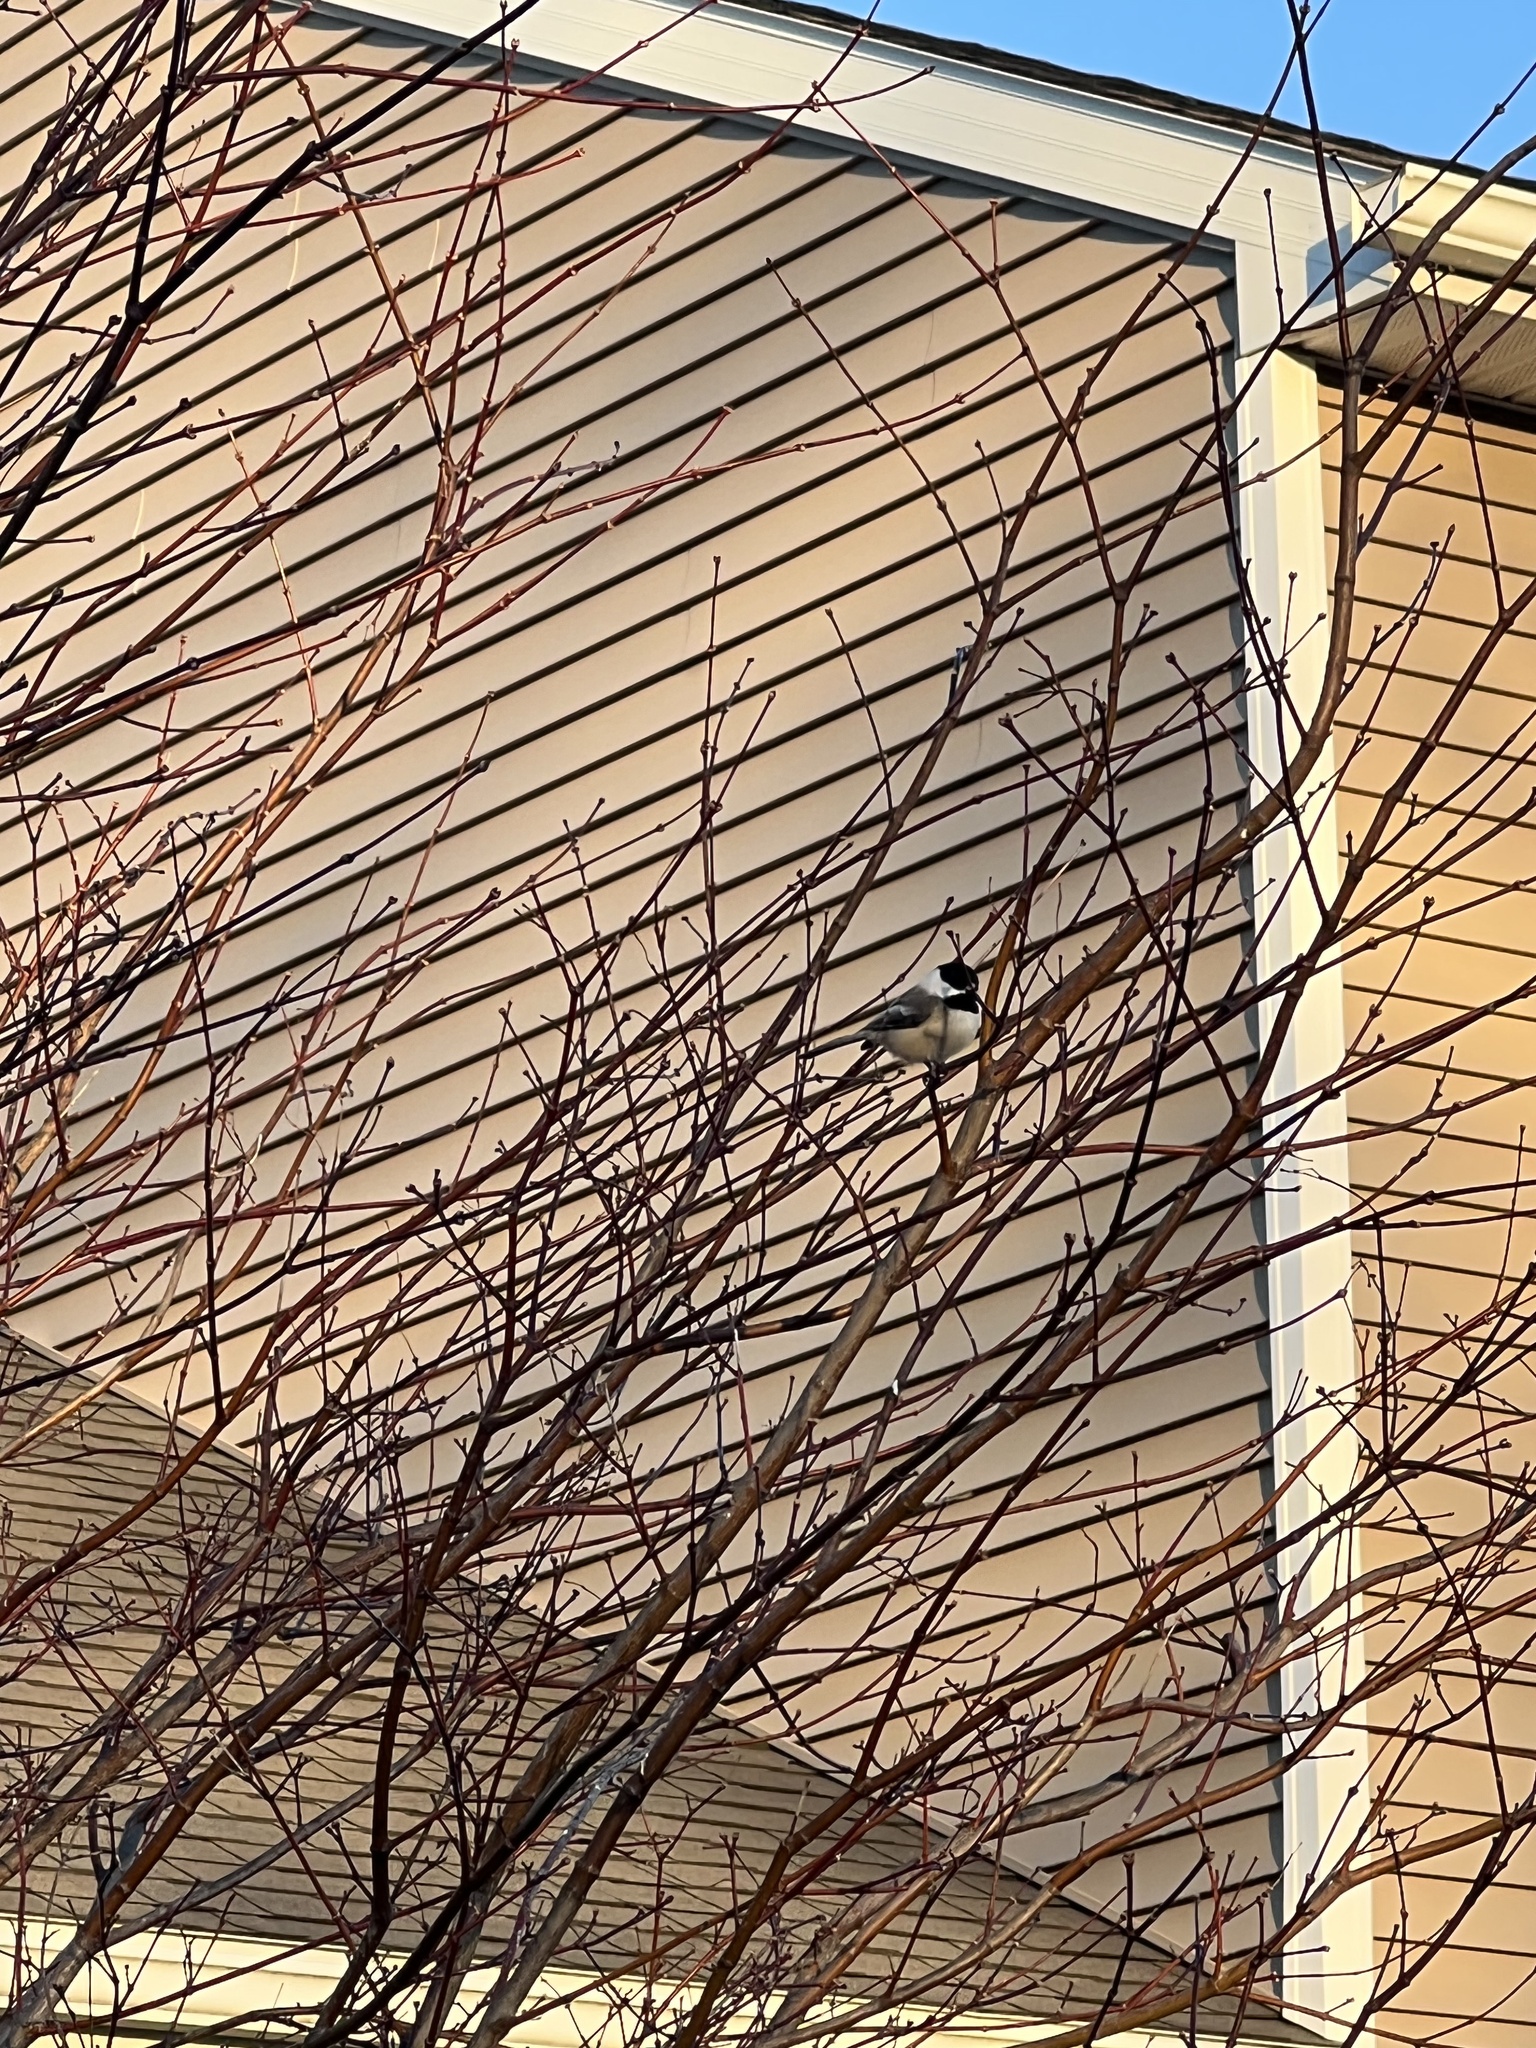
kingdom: Animalia
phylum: Chordata
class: Aves
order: Passeriformes
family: Paridae
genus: Poecile
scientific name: Poecile atricapillus
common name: Black-capped chickadee
